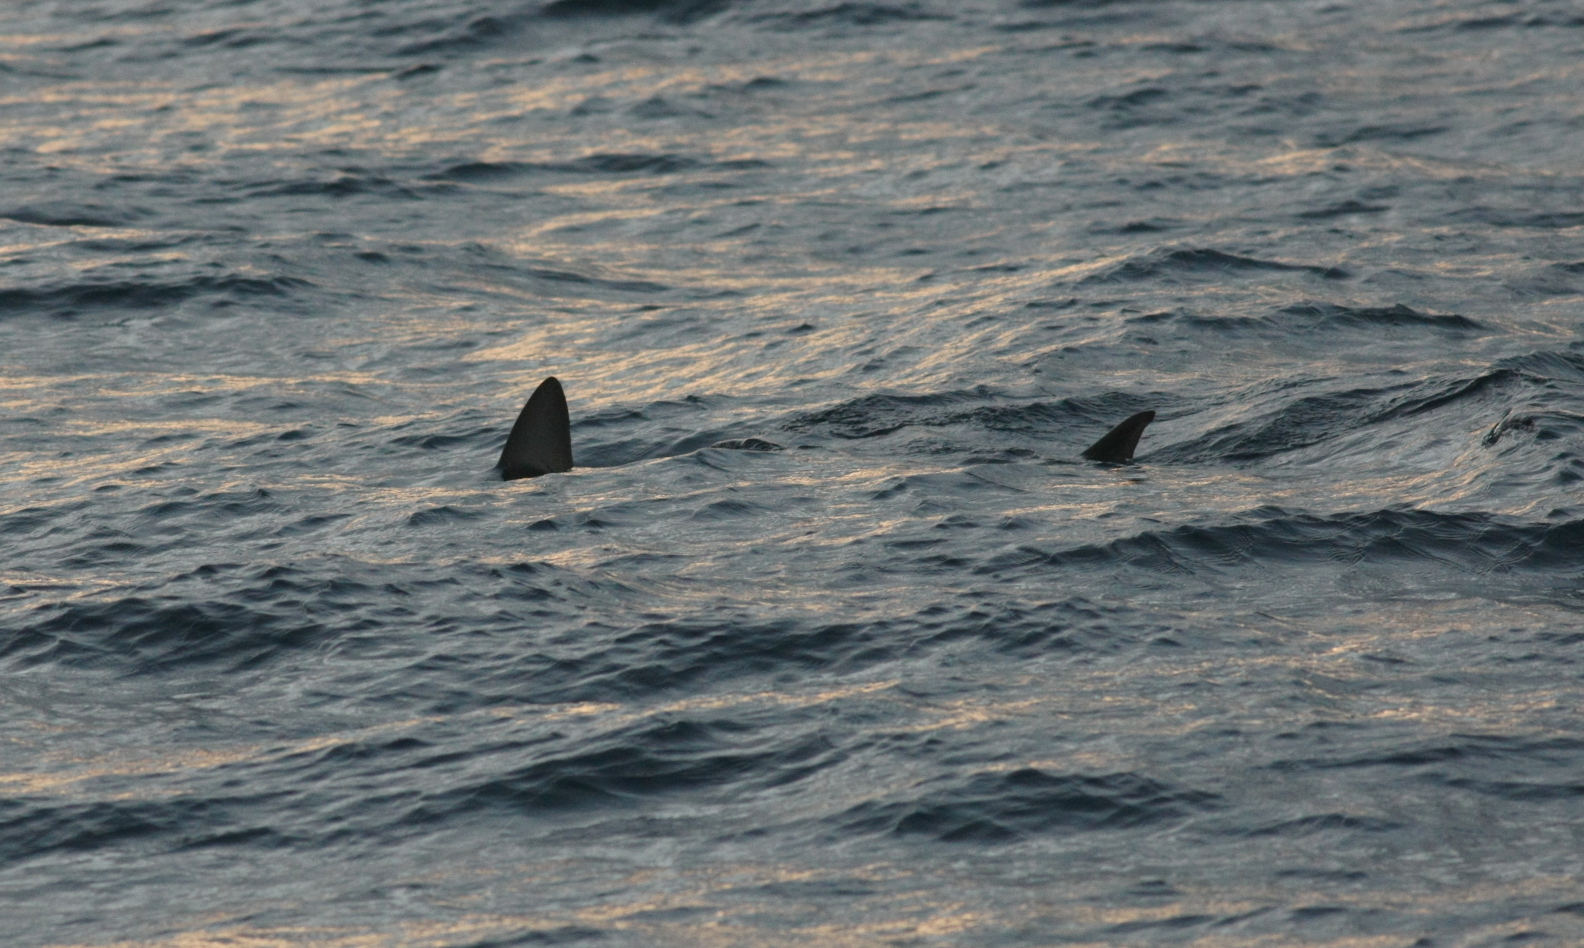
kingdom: Animalia
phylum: Chordata
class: Elasmobranchii
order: Carcharhiniformes
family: Carcharhinidae
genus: Prionace
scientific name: Prionace glauca
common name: Blue shark
